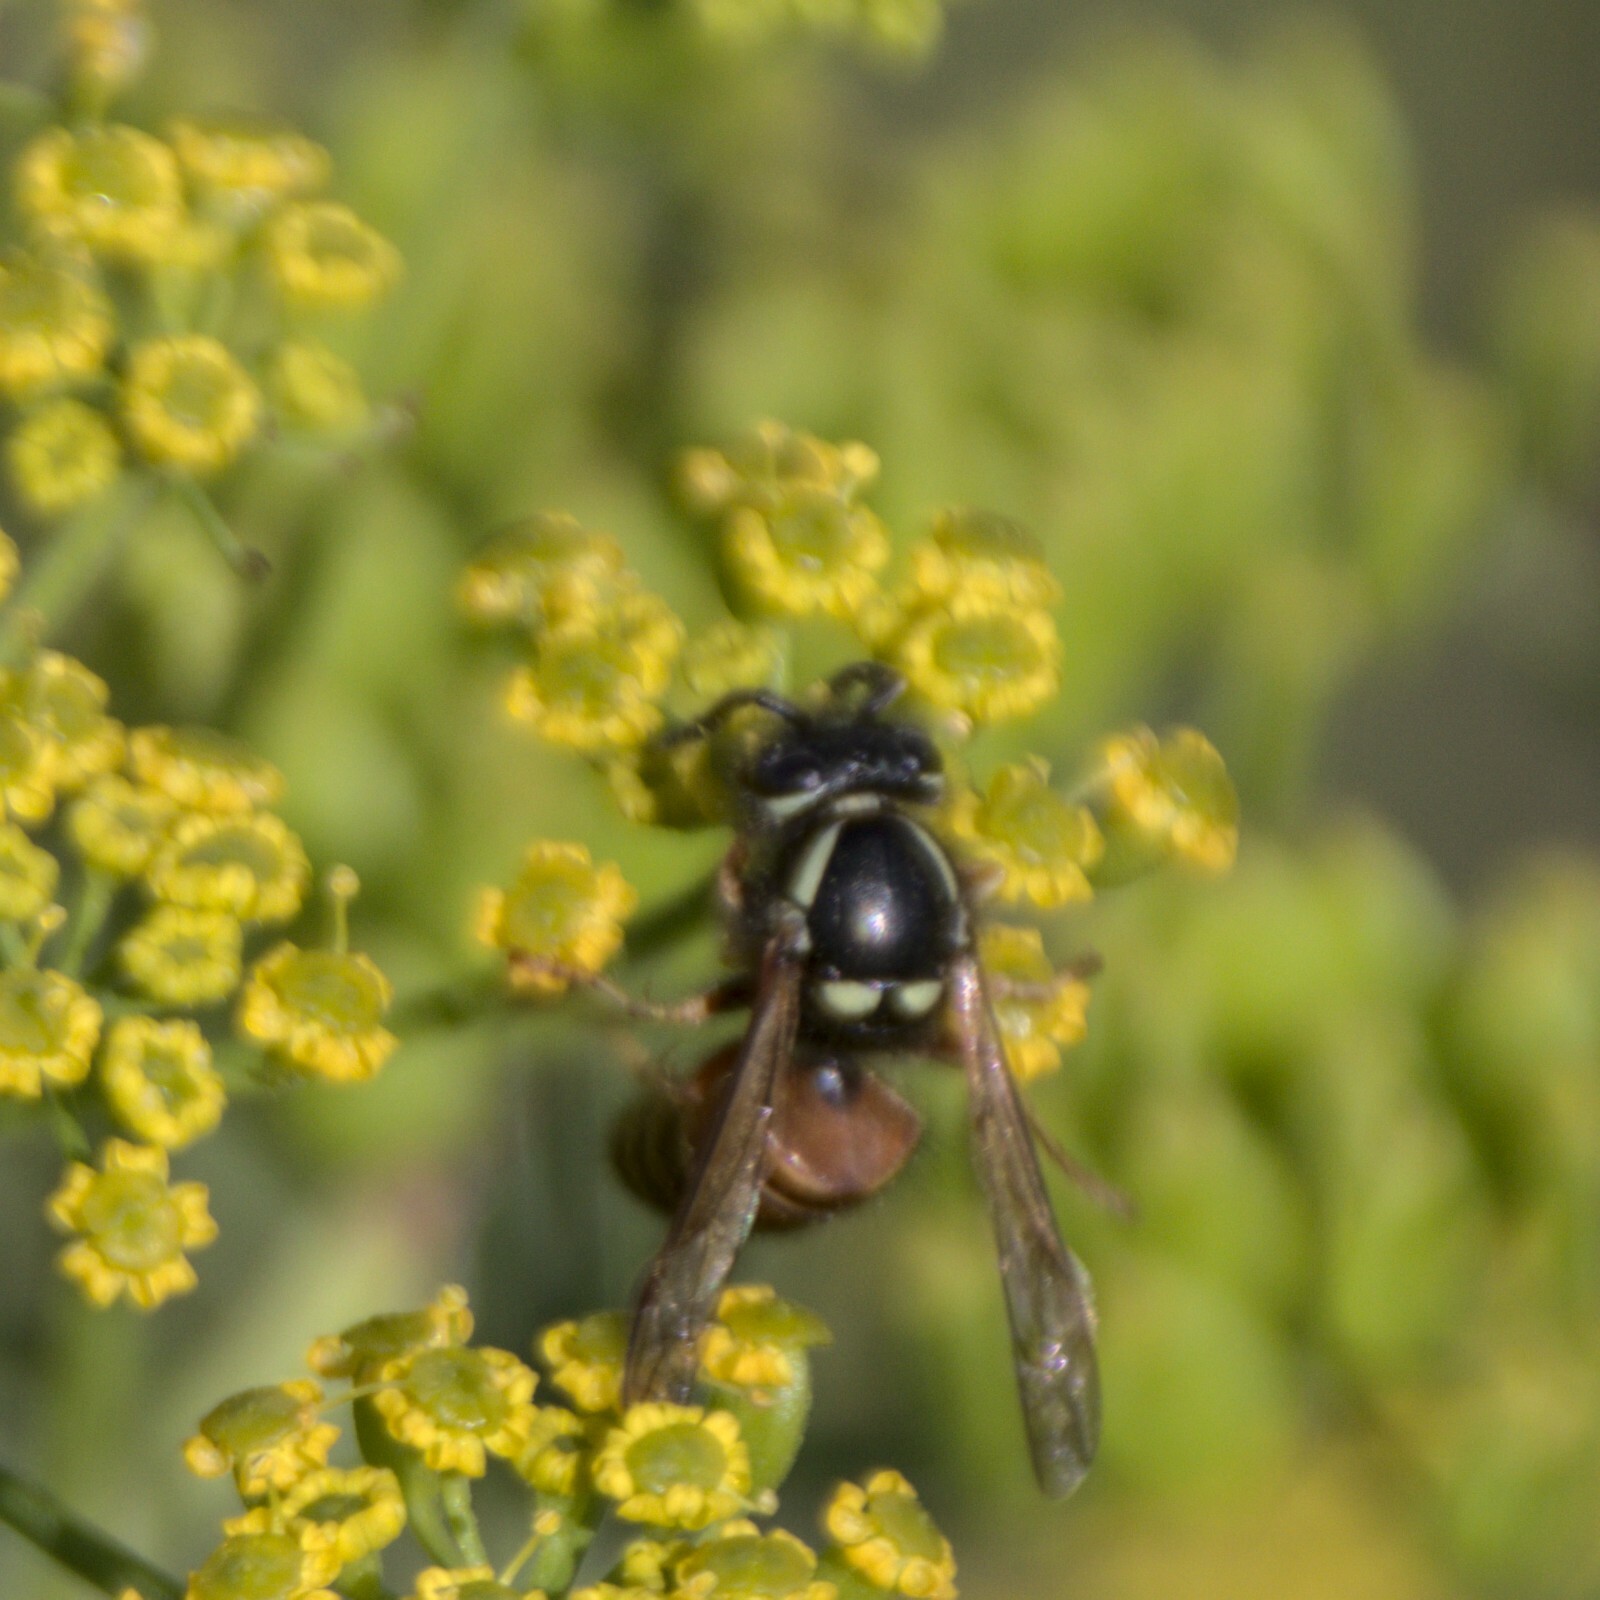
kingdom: Animalia
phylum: Arthropoda
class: Insecta
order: Hymenoptera
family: Vespidae
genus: Vespula
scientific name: Vespula rufa
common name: Red wasp
